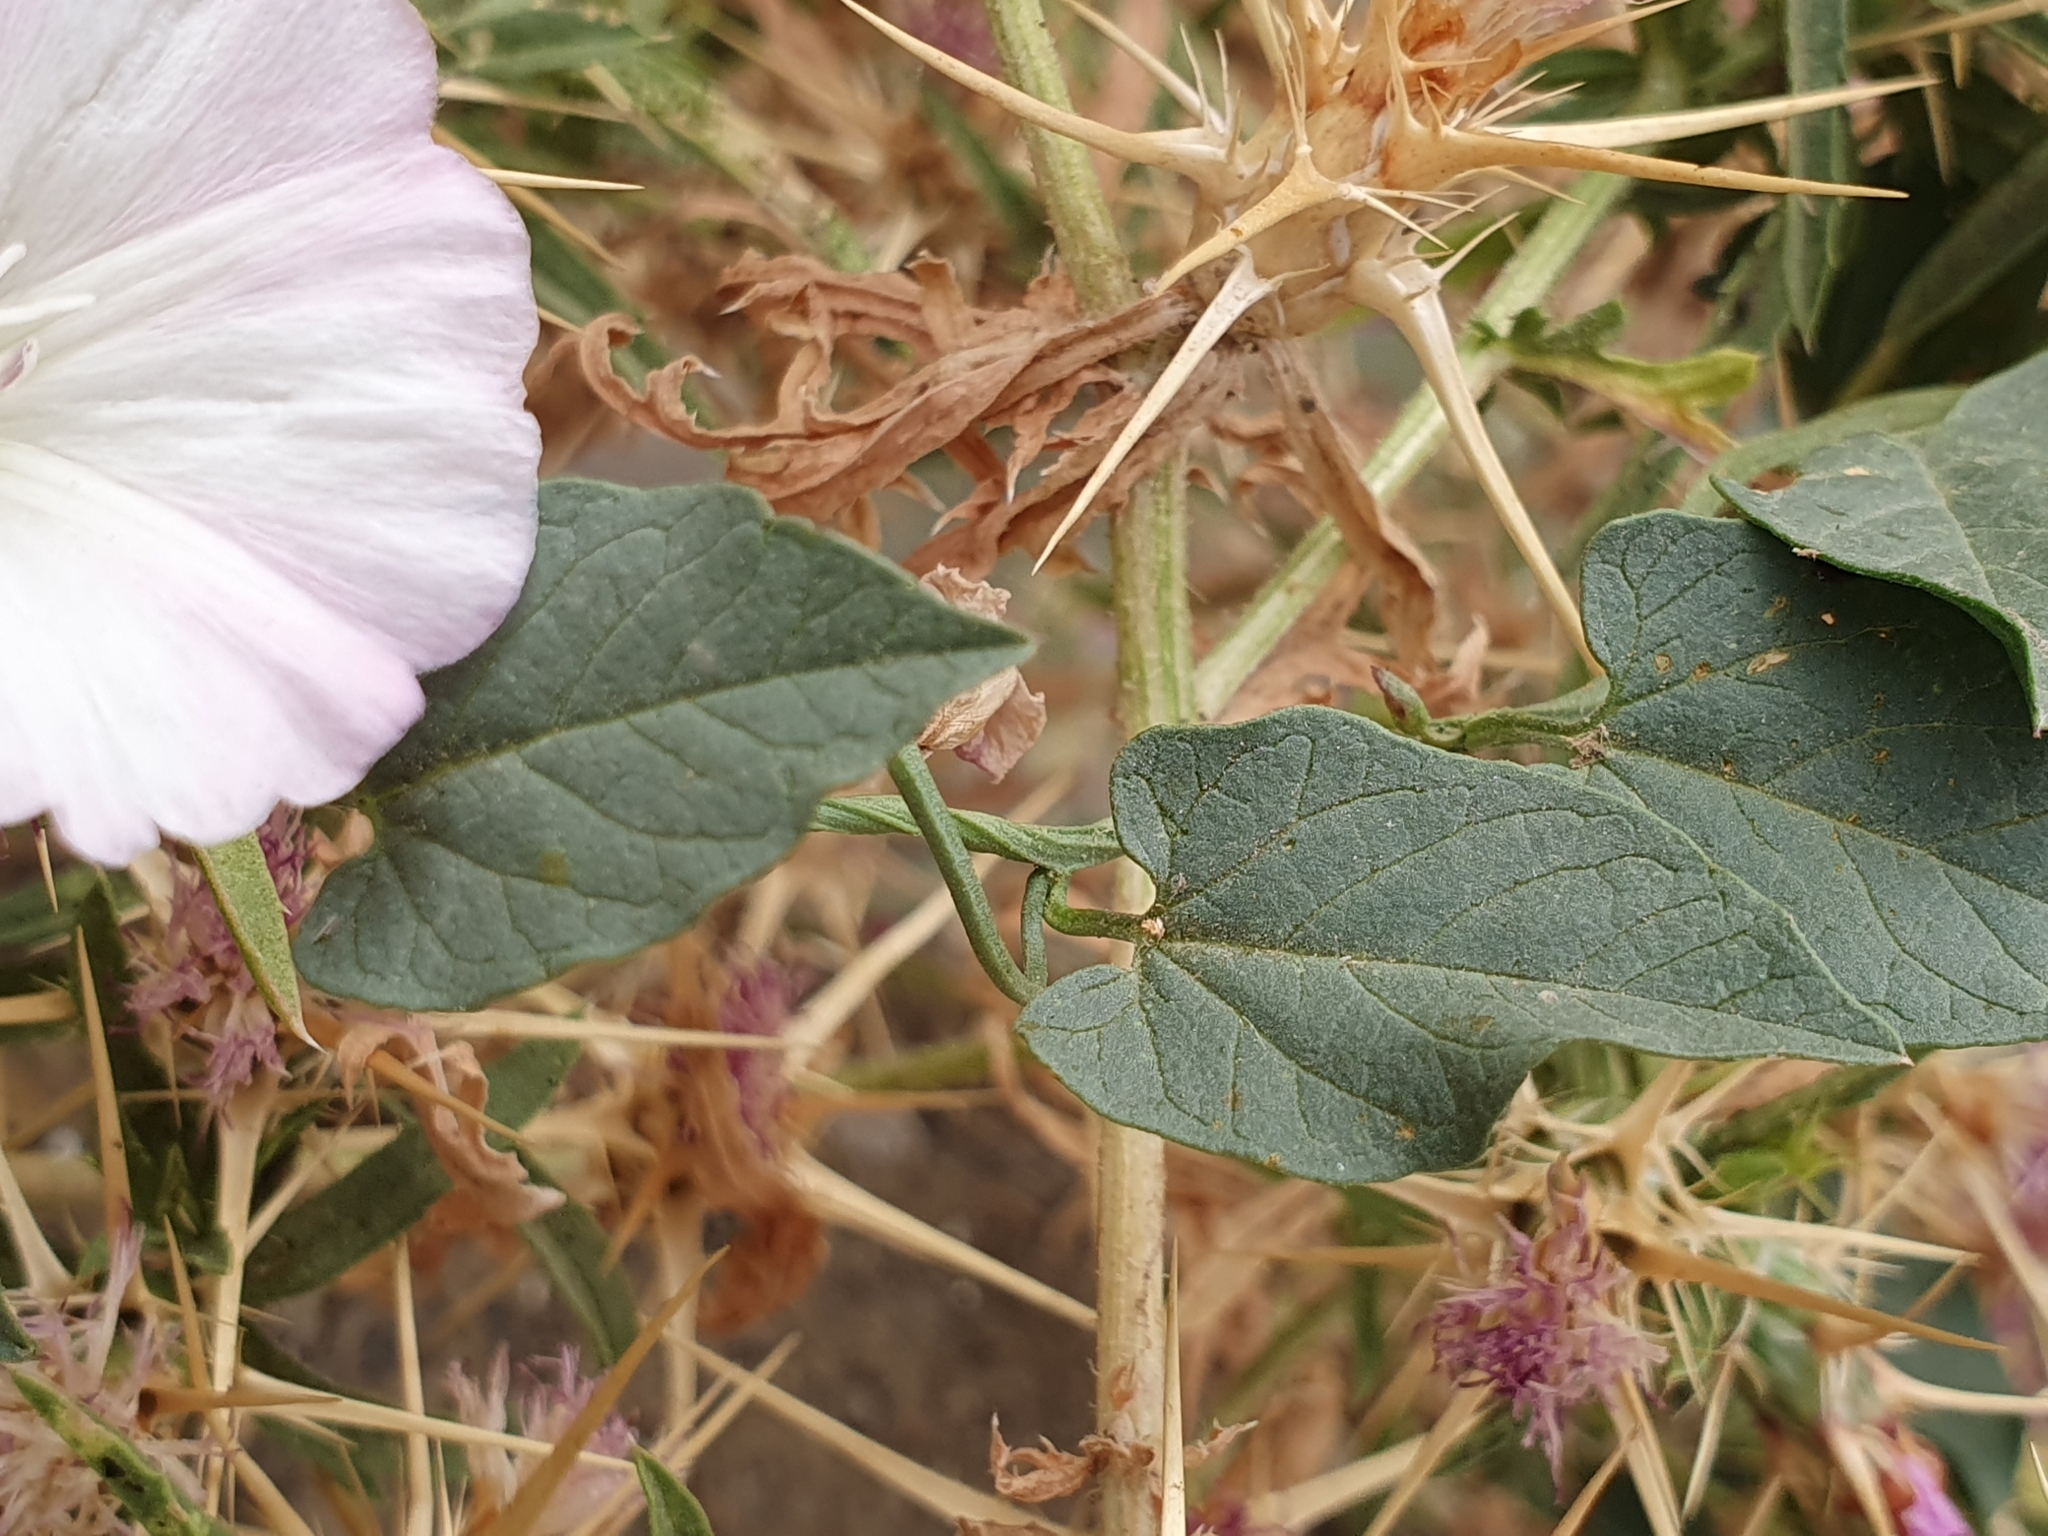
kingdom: Plantae
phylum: Tracheophyta
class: Magnoliopsida
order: Solanales
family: Convolvulaceae
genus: Convolvulus
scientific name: Convolvulus arvensis
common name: Field bindweed
